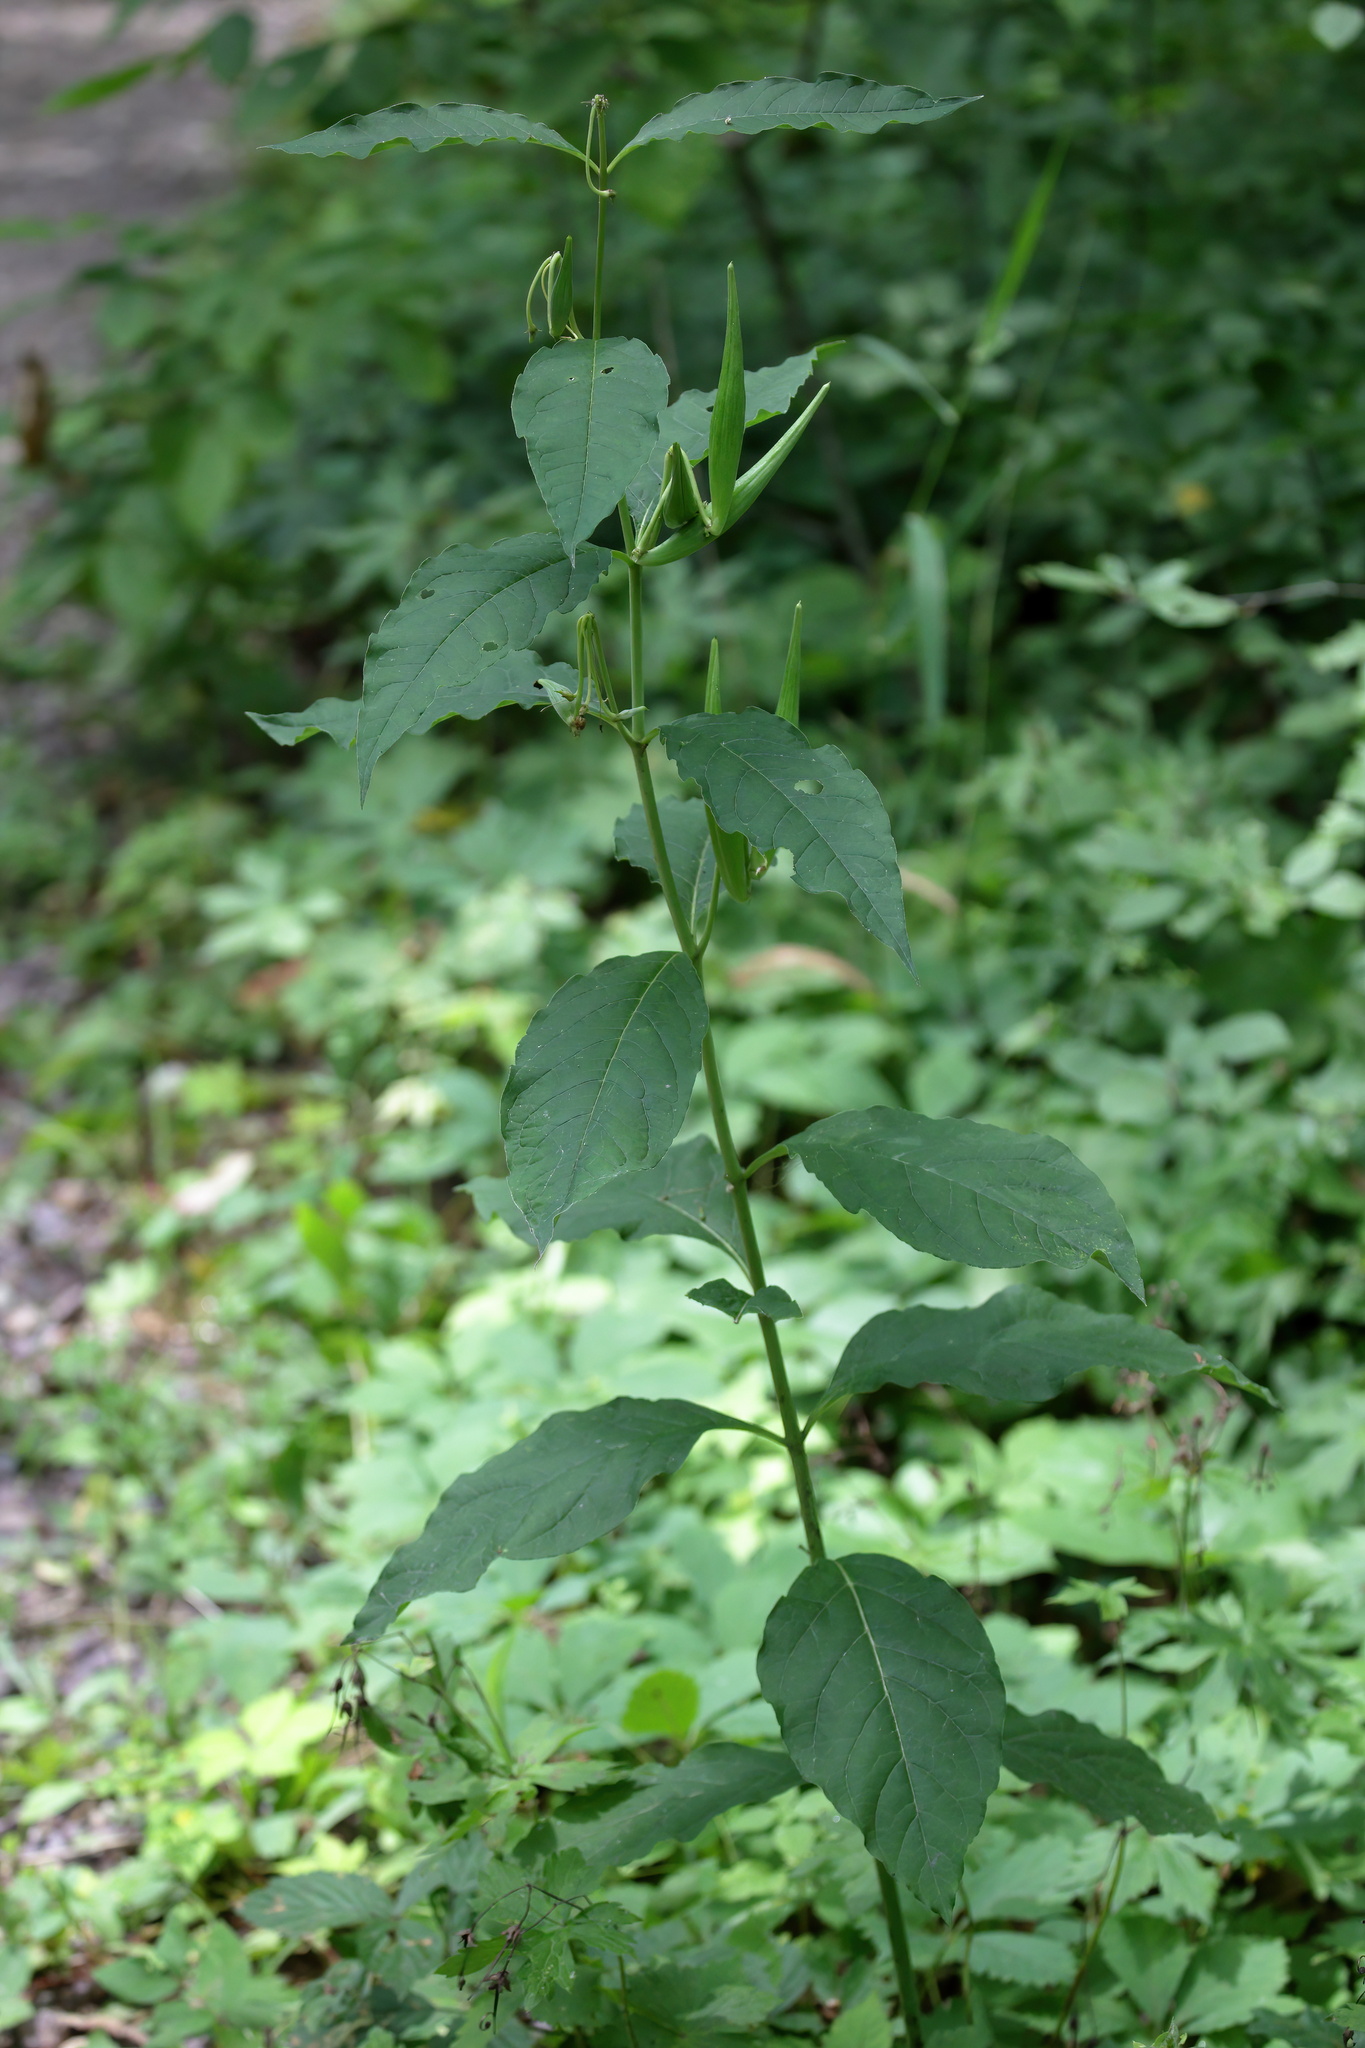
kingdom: Plantae
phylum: Tracheophyta
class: Magnoliopsida
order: Gentianales
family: Apocynaceae
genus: Asclepias
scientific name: Asclepias exaltata
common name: Poke milkweed
